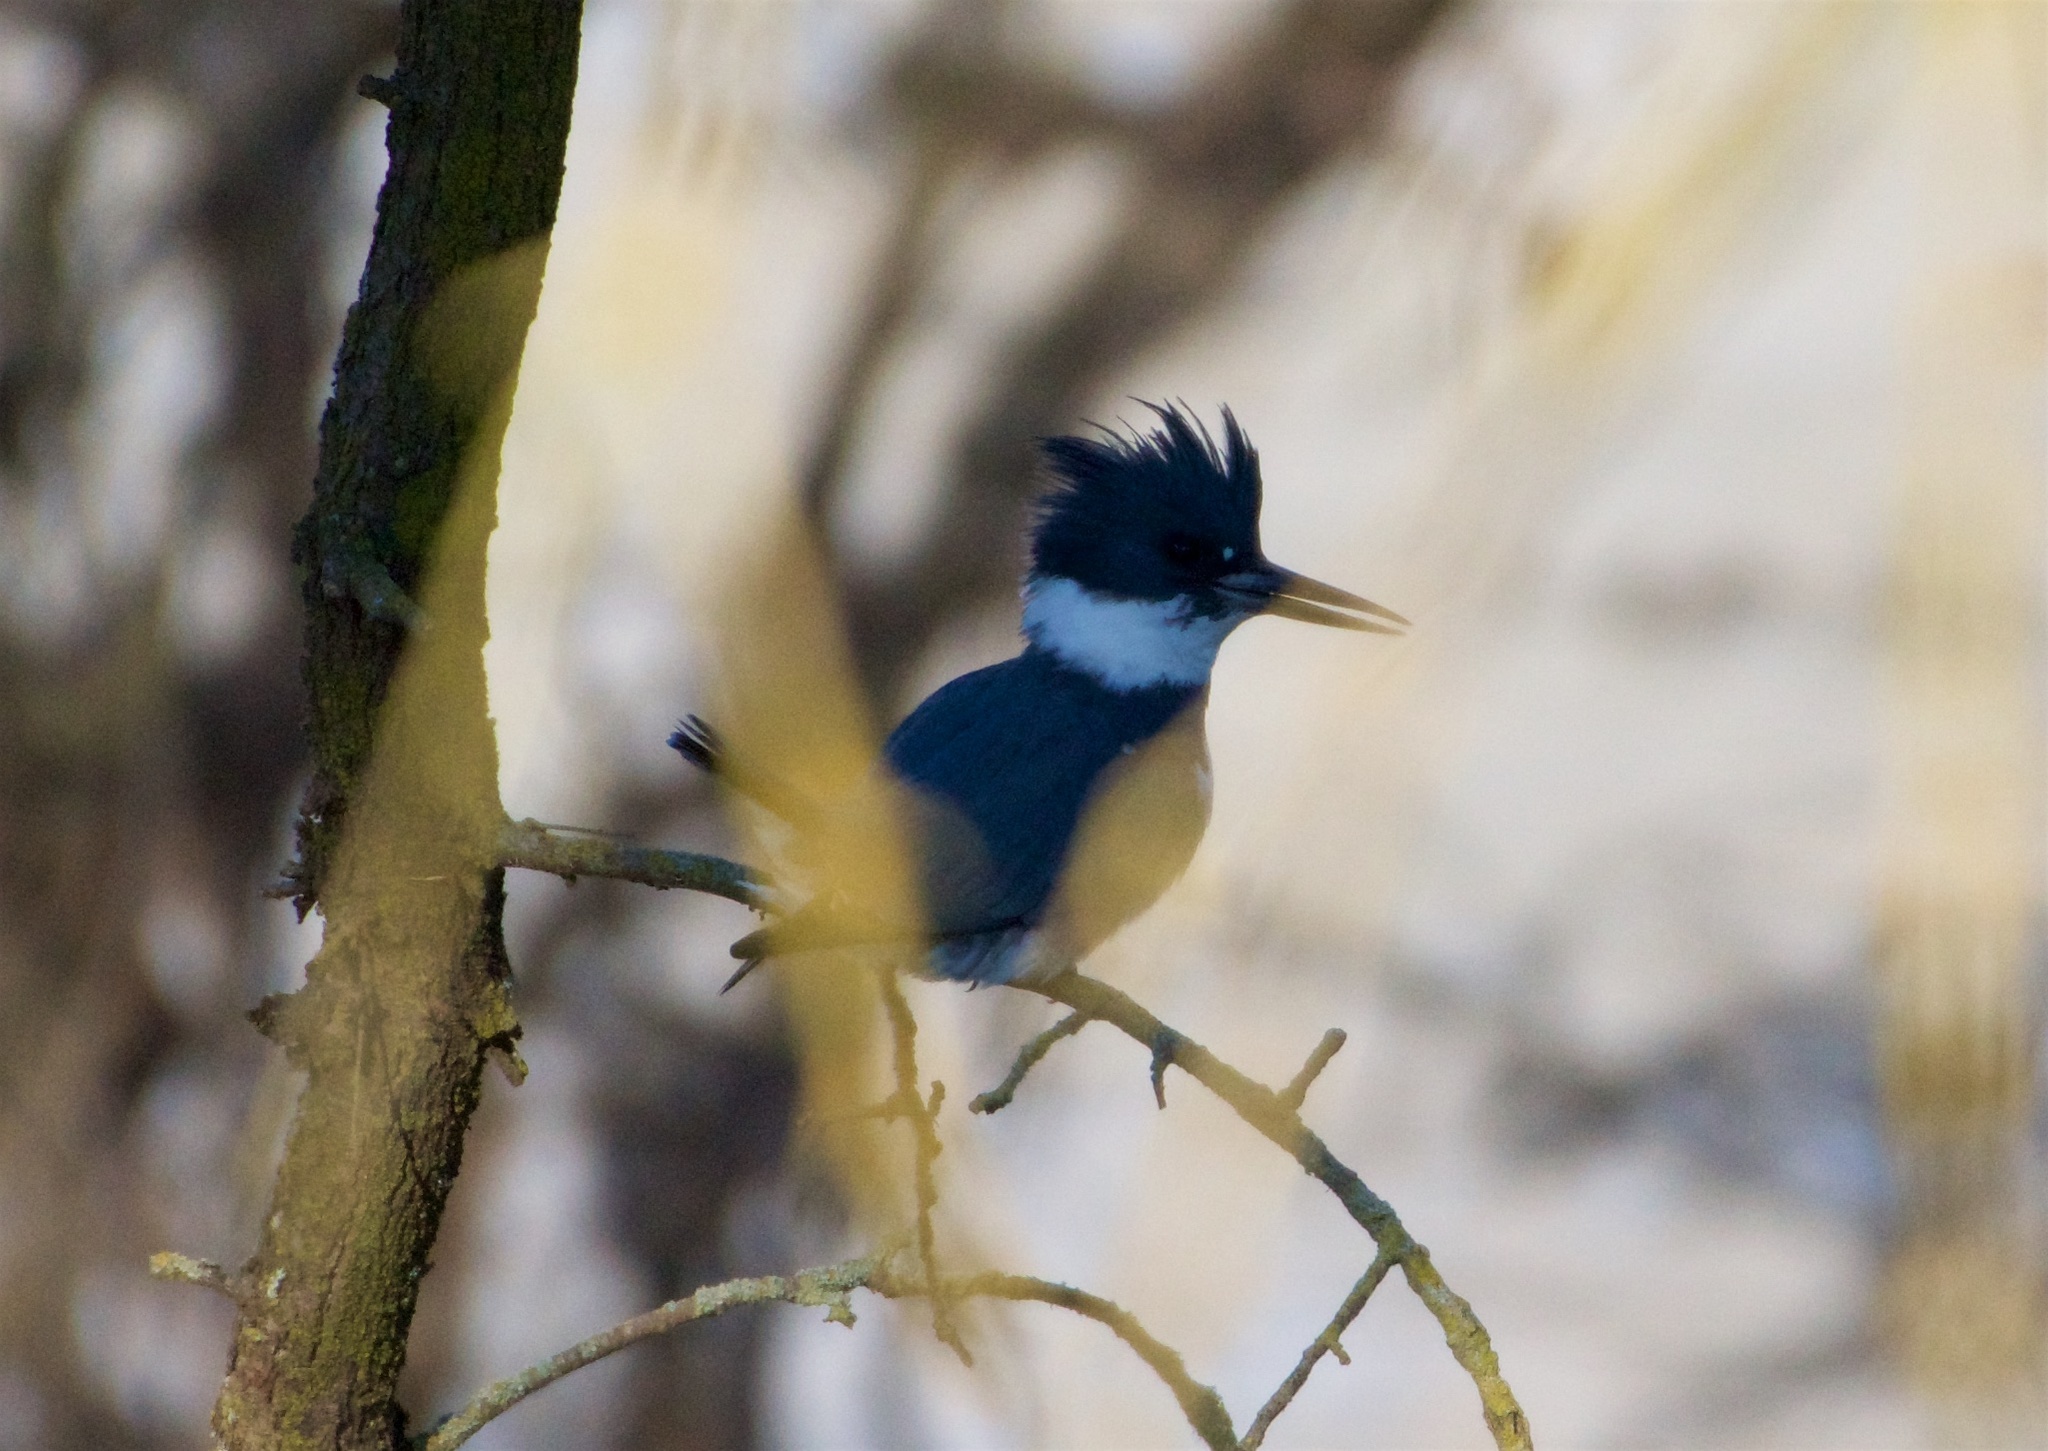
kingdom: Animalia
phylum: Chordata
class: Aves
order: Coraciiformes
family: Alcedinidae
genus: Megaceryle
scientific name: Megaceryle alcyon
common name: Belted kingfisher
